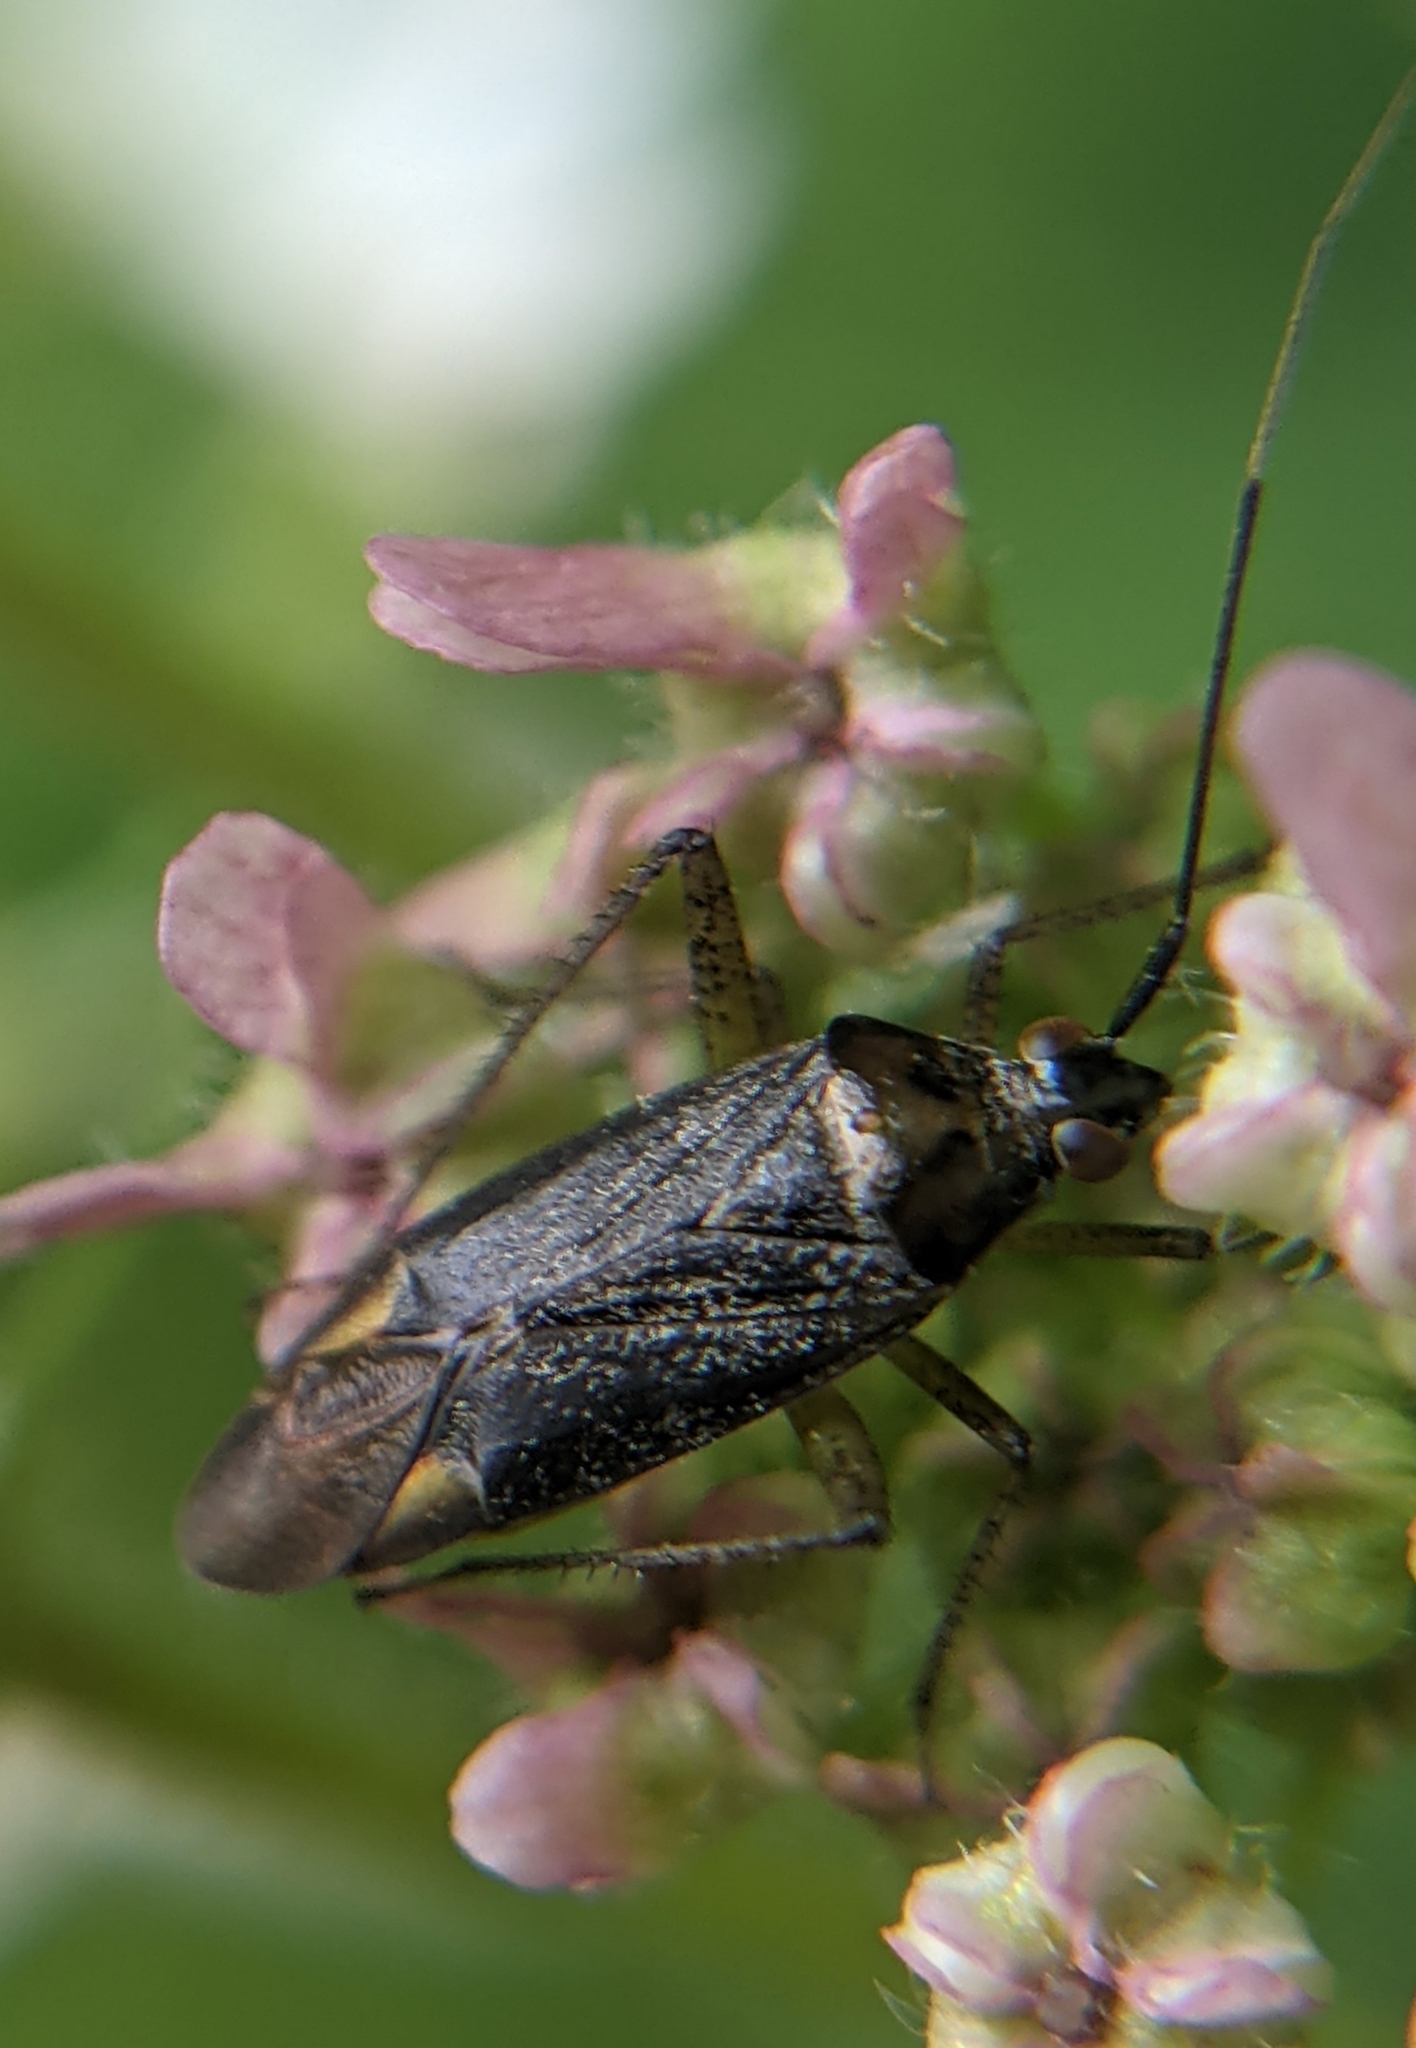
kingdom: Animalia
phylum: Arthropoda
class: Insecta
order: Hemiptera
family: Miridae
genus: Closterotomus
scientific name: Closterotomus trivialis
